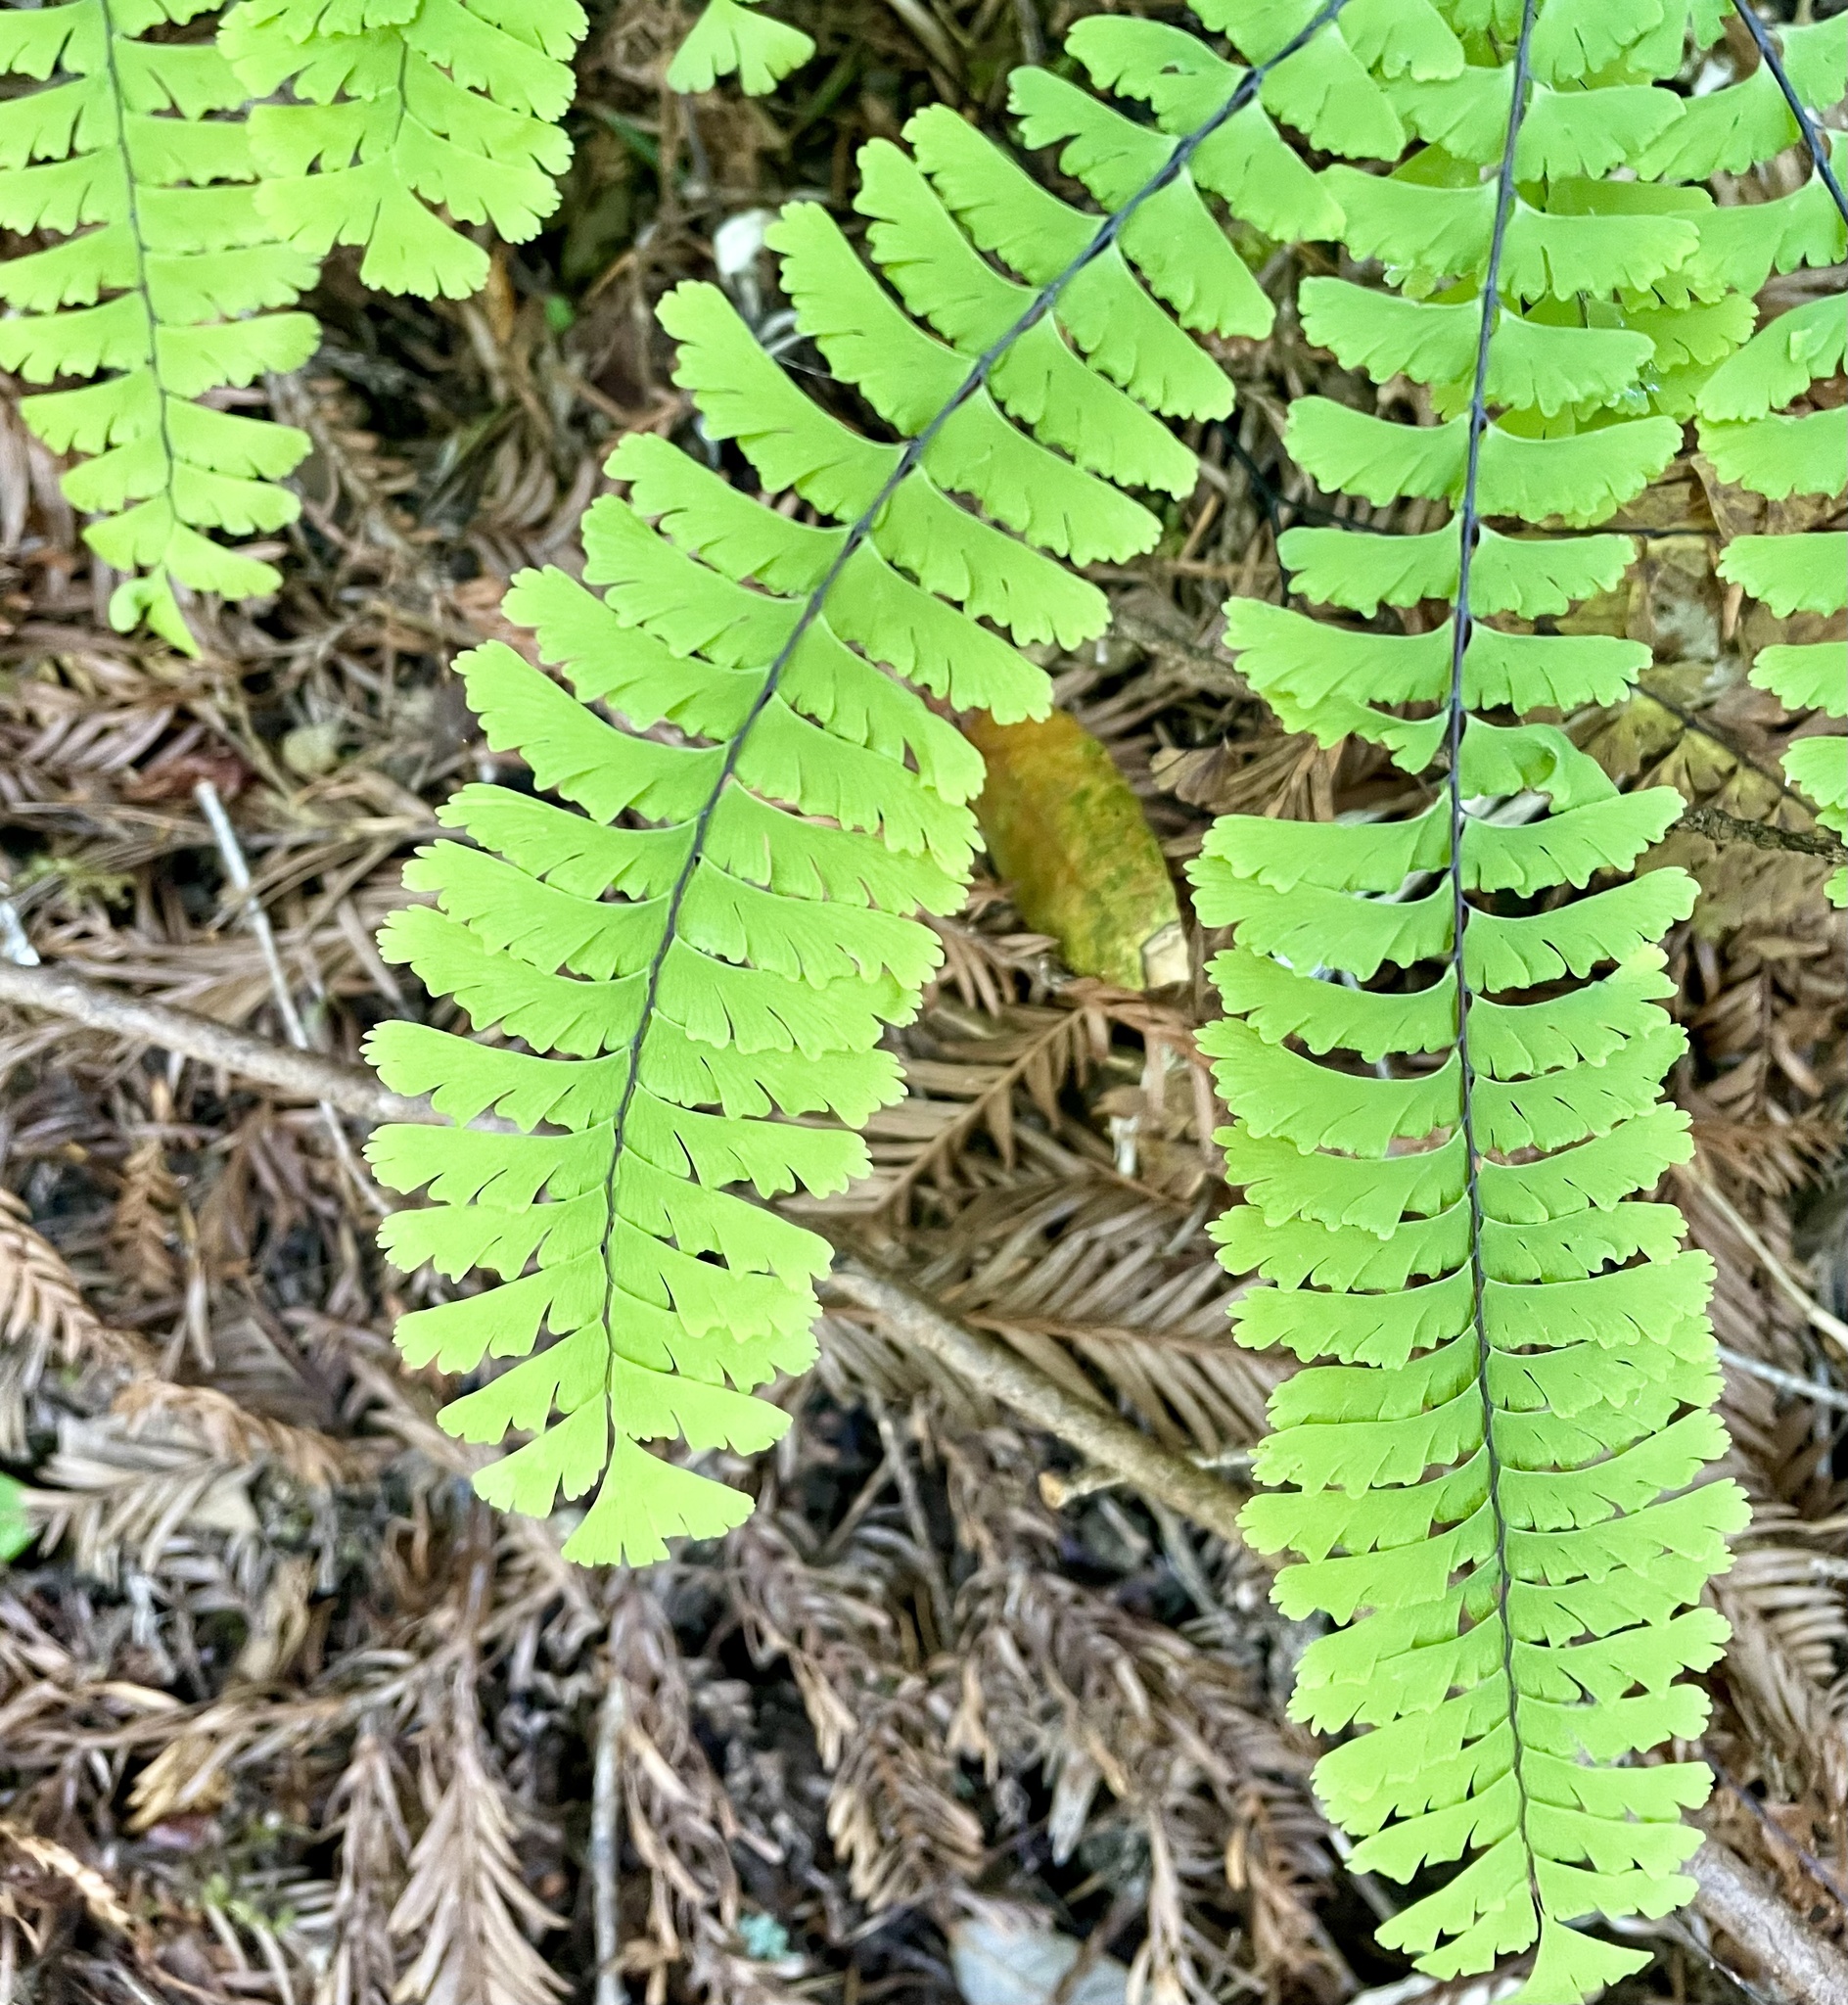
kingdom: Plantae
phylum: Tracheophyta
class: Polypodiopsida
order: Polypodiales
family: Pteridaceae
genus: Adiantum
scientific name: Adiantum aleuticum
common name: Aleutian maidenhair fern
